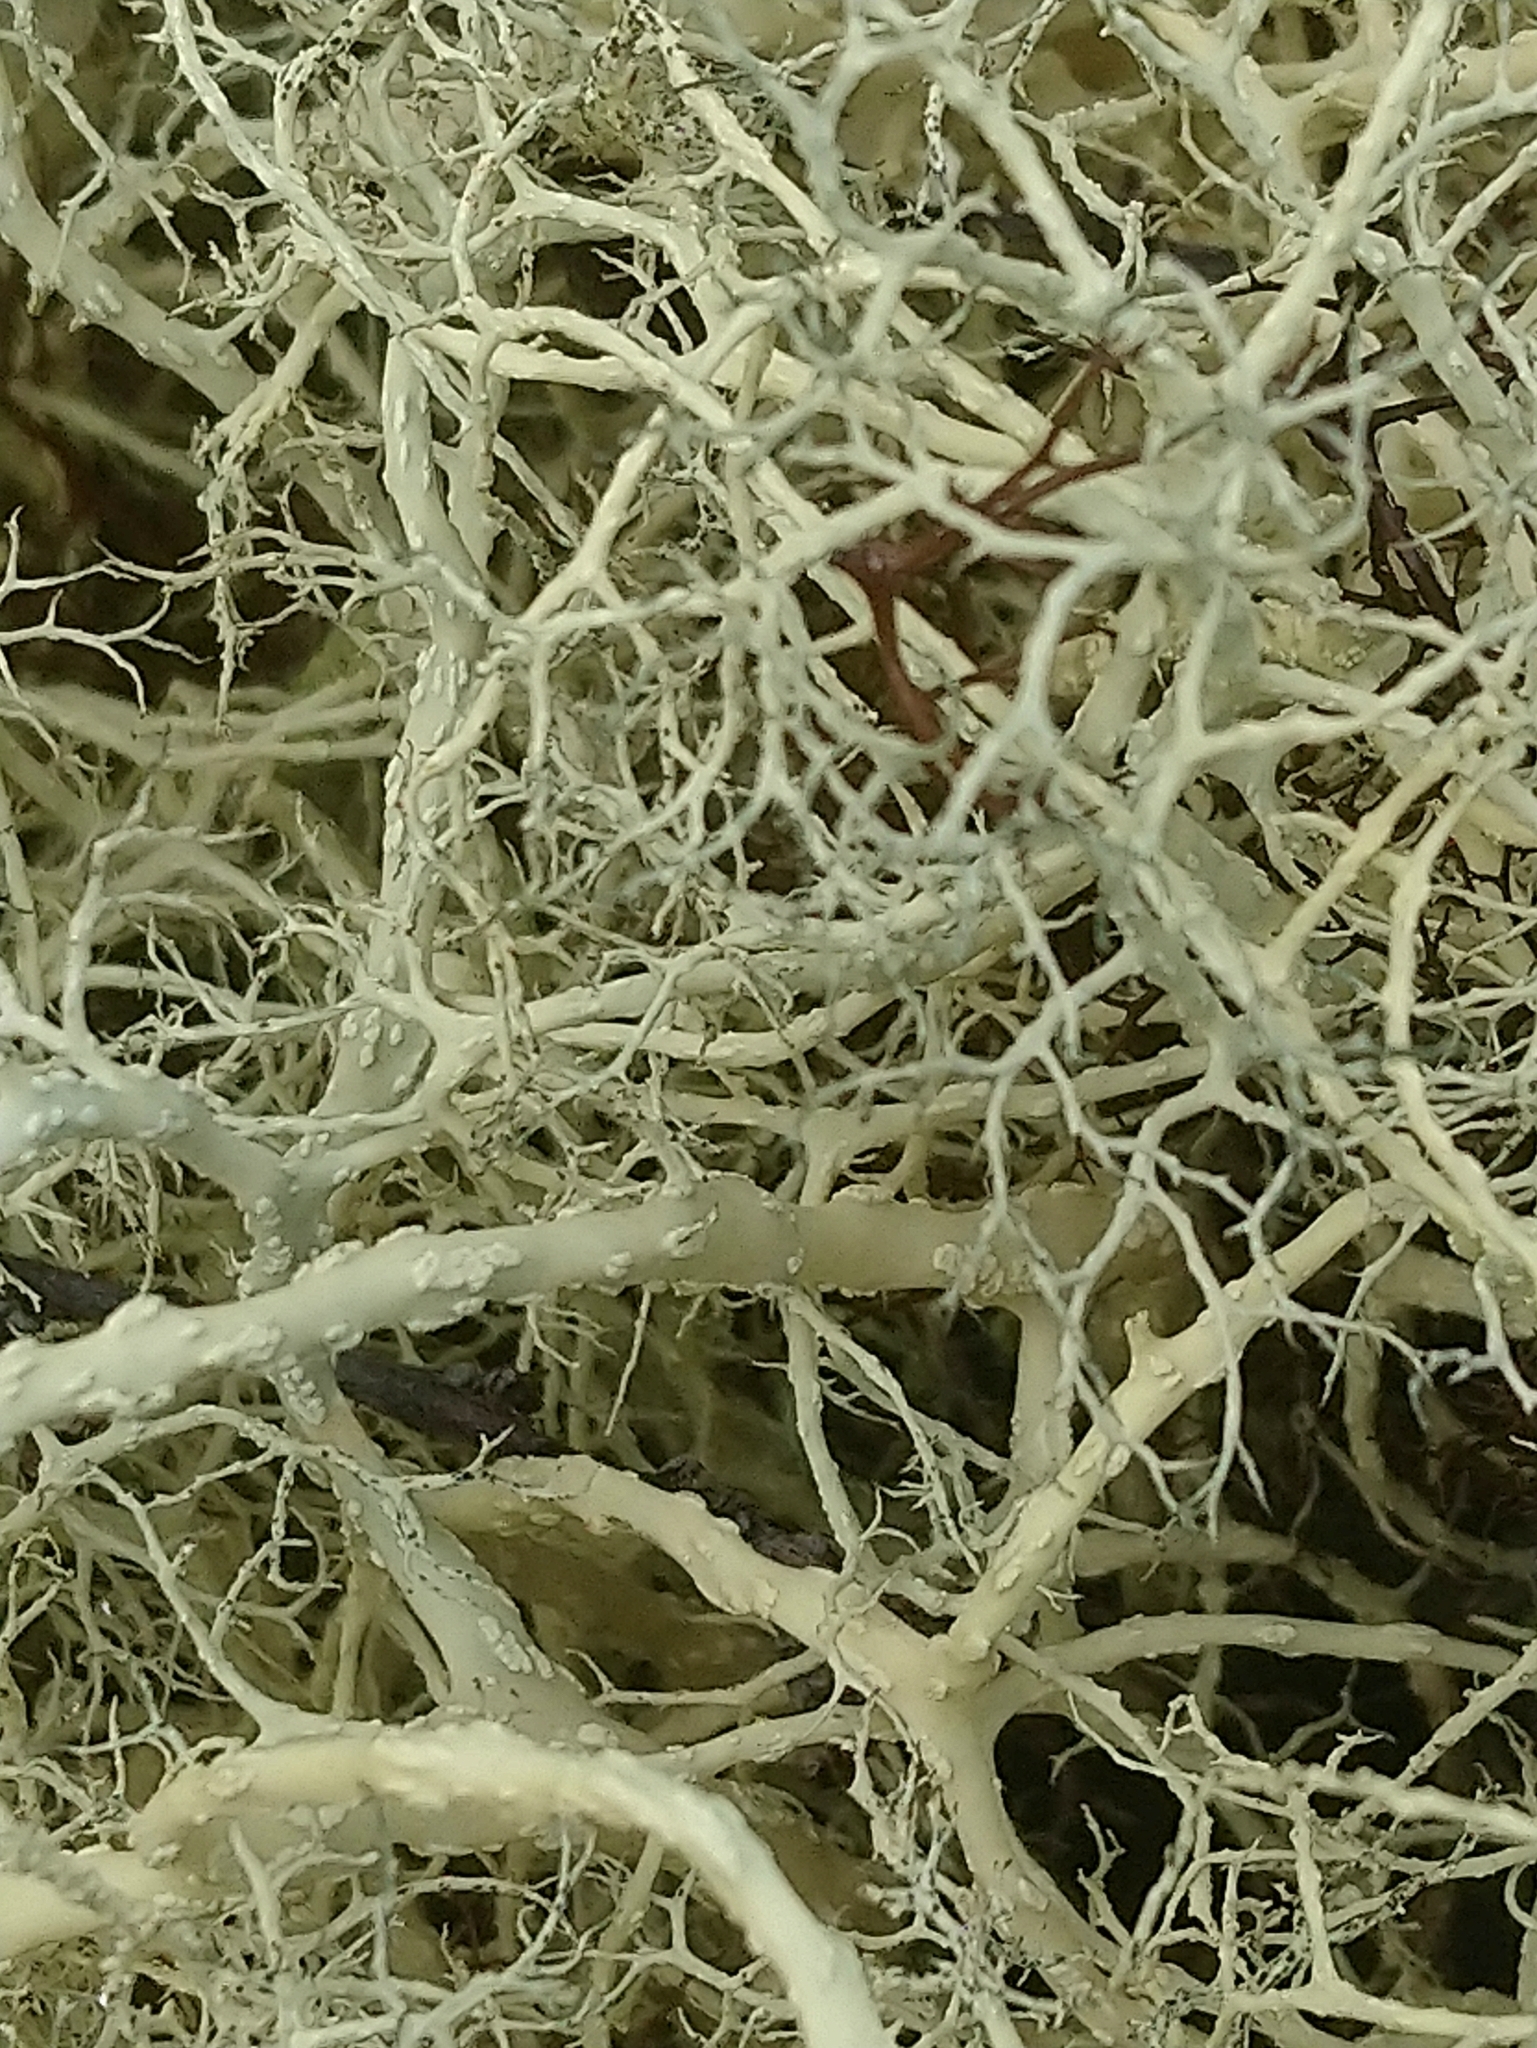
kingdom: Fungi
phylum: Ascomycota
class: Lecanoromycetes
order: Lecanorales
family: Parmeliaceae
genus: Alectoria
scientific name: Alectoria ochroleuca
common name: Alpine sulphur-tresses
